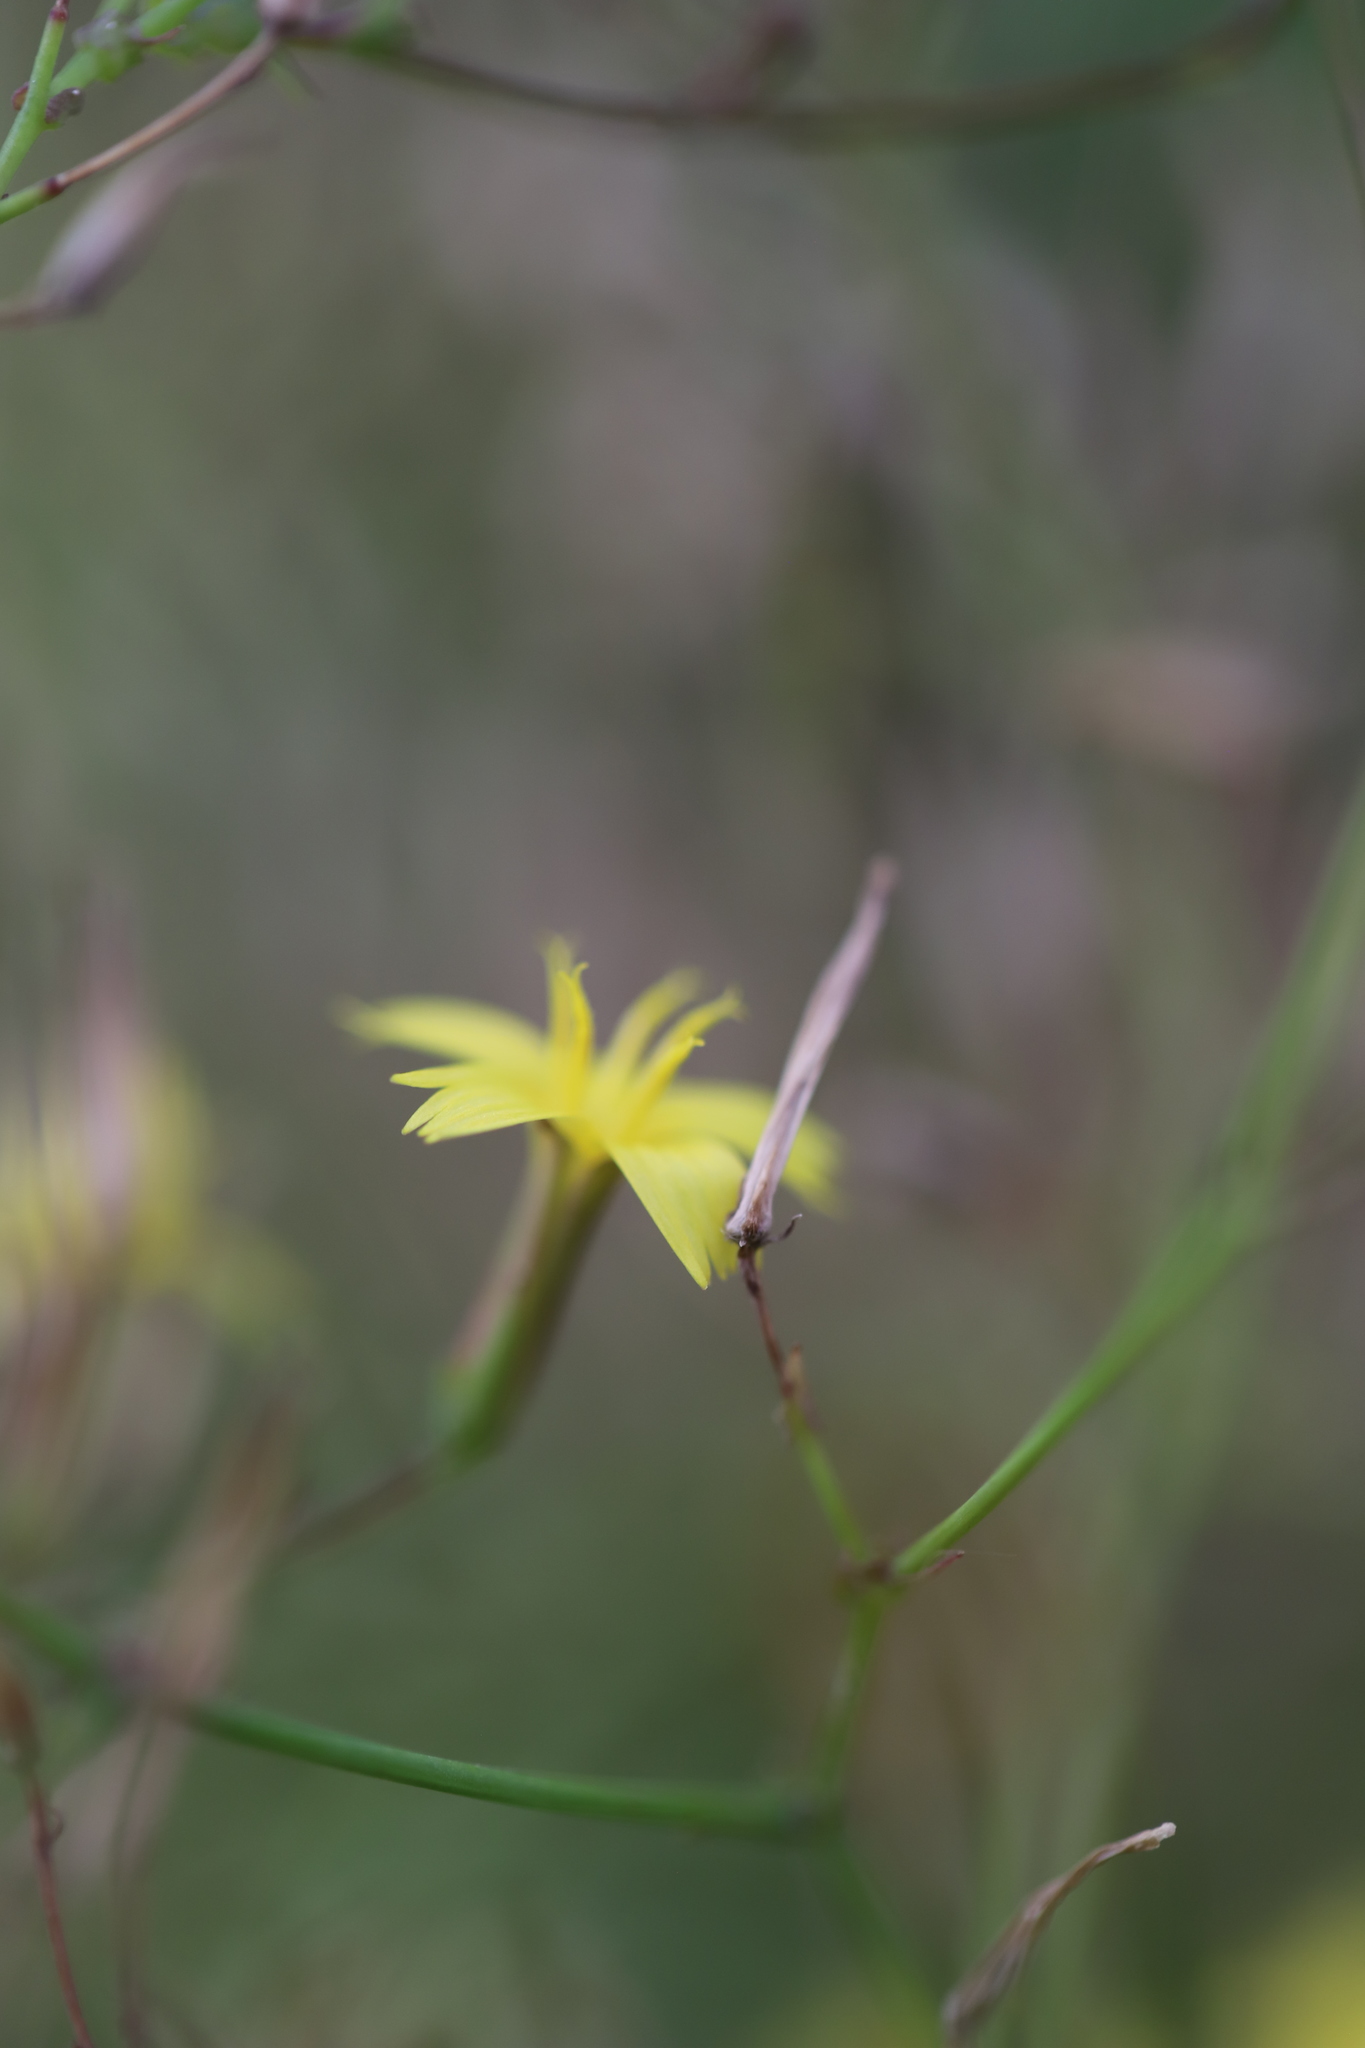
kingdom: Plantae
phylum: Tracheophyta
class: Magnoliopsida
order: Asterales
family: Asteraceae
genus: Mycelis
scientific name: Mycelis muralis
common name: Wall lettuce
